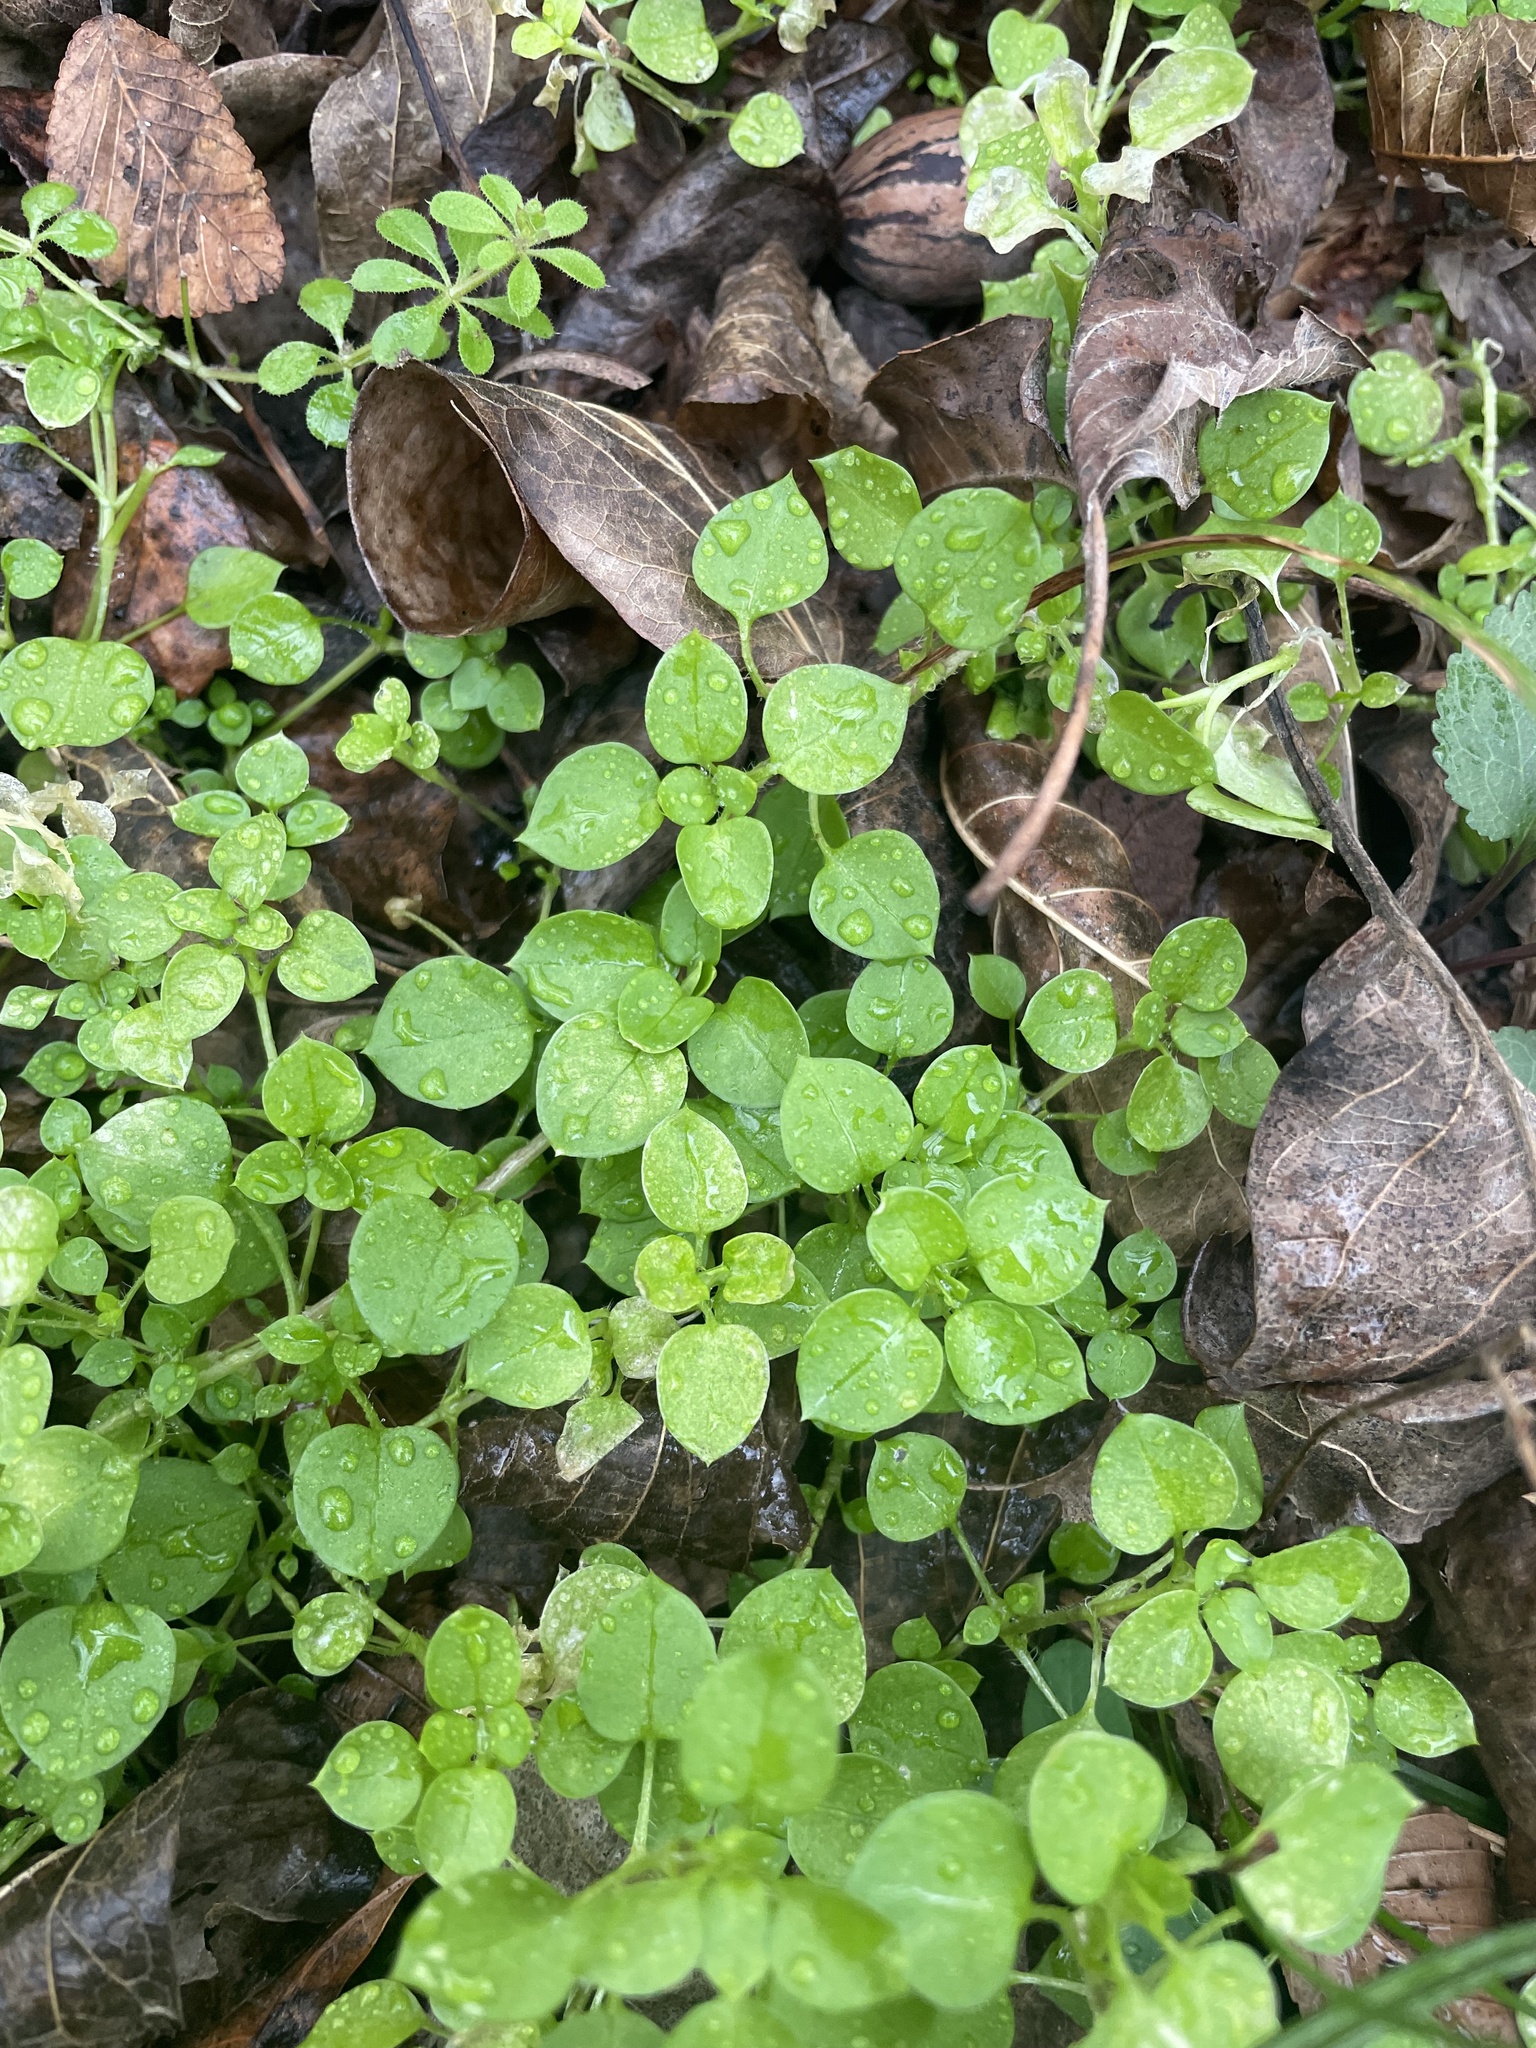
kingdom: Plantae
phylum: Tracheophyta
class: Magnoliopsida
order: Caryophyllales
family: Caryophyllaceae
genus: Stellaria
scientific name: Stellaria media
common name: Common chickweed
